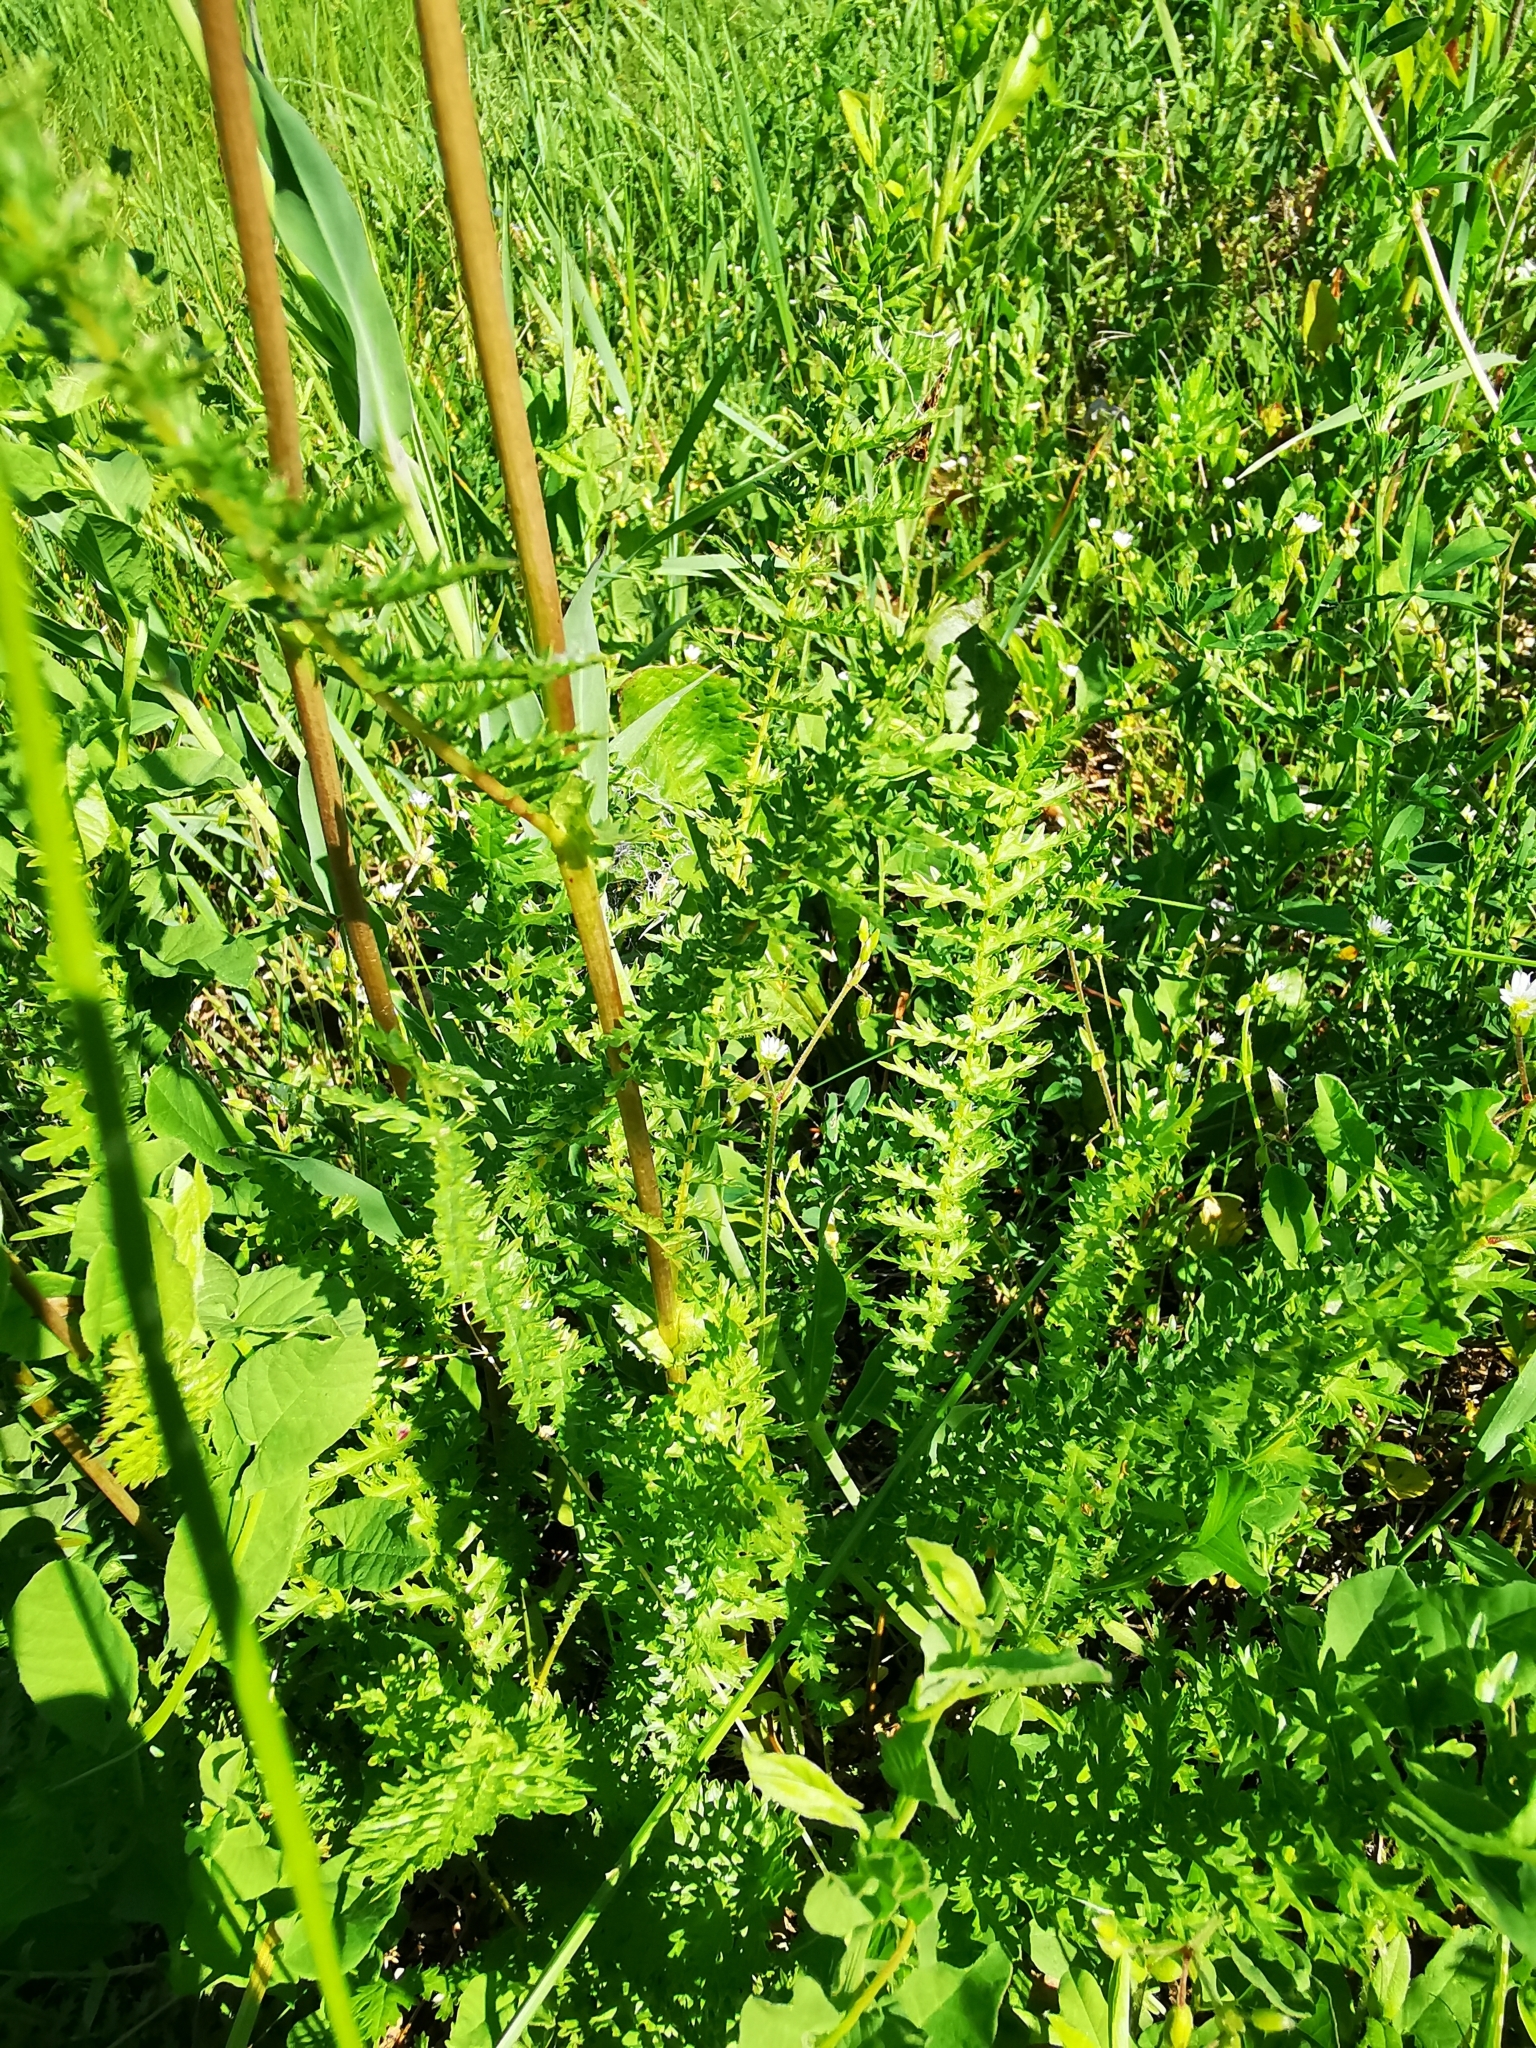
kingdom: Plantae
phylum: Tracheophyta
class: Magnoliopsida
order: Rosales
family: Rosaceae
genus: Filipendula
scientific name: Filipendula vulgaris
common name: Dropwort
